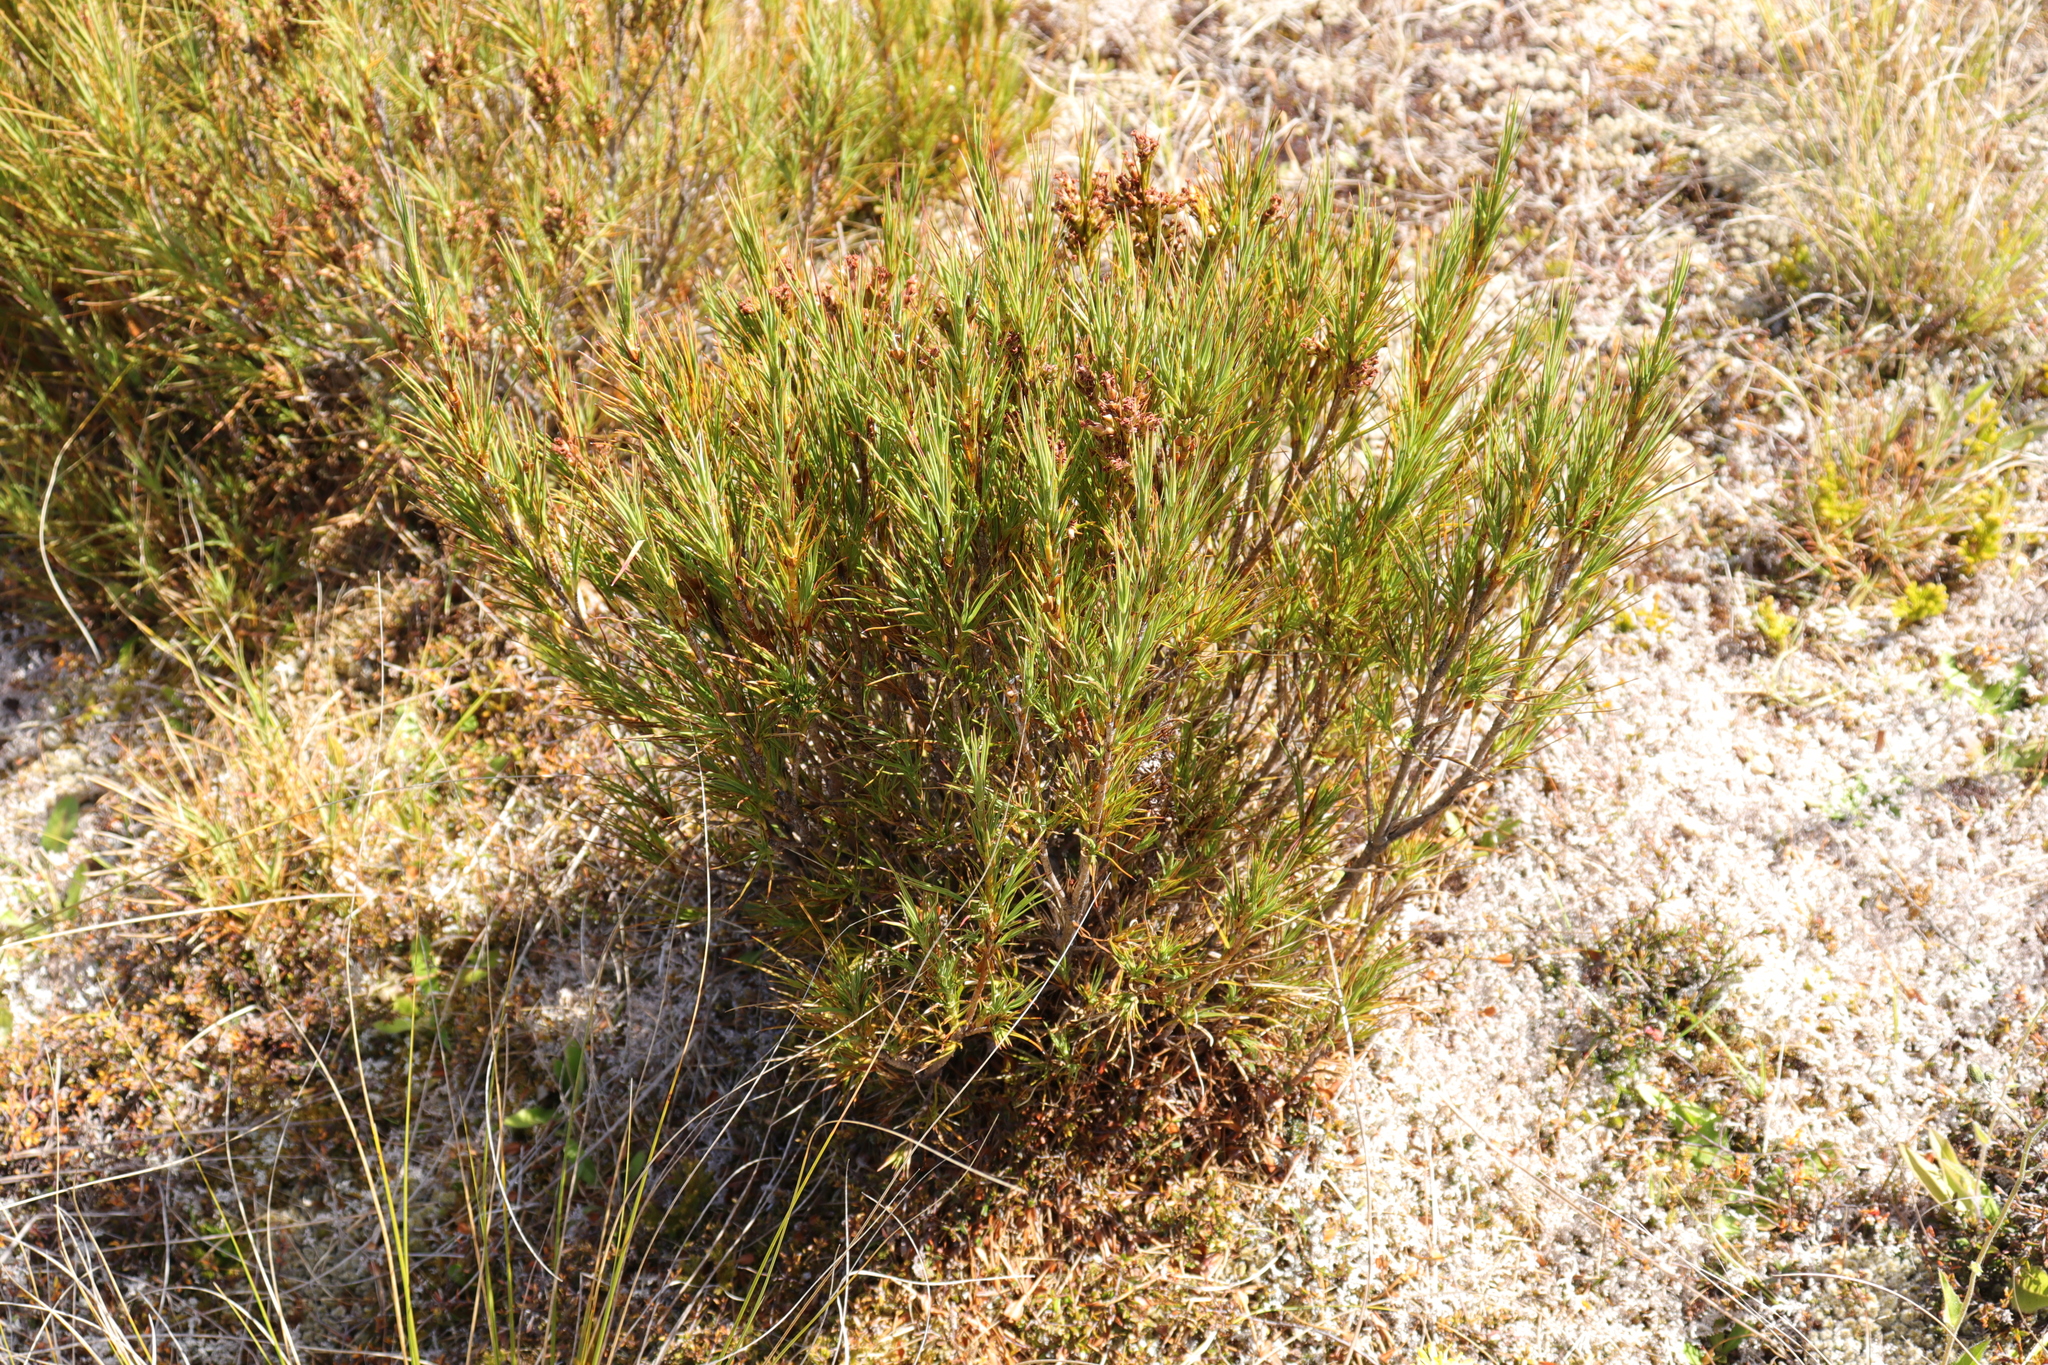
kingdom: Plantae
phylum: Tracheophyta
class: Magnoliopsida
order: Ericales
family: Ericaceae
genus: Dracophyllum
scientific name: Dracophyllum longifolium
